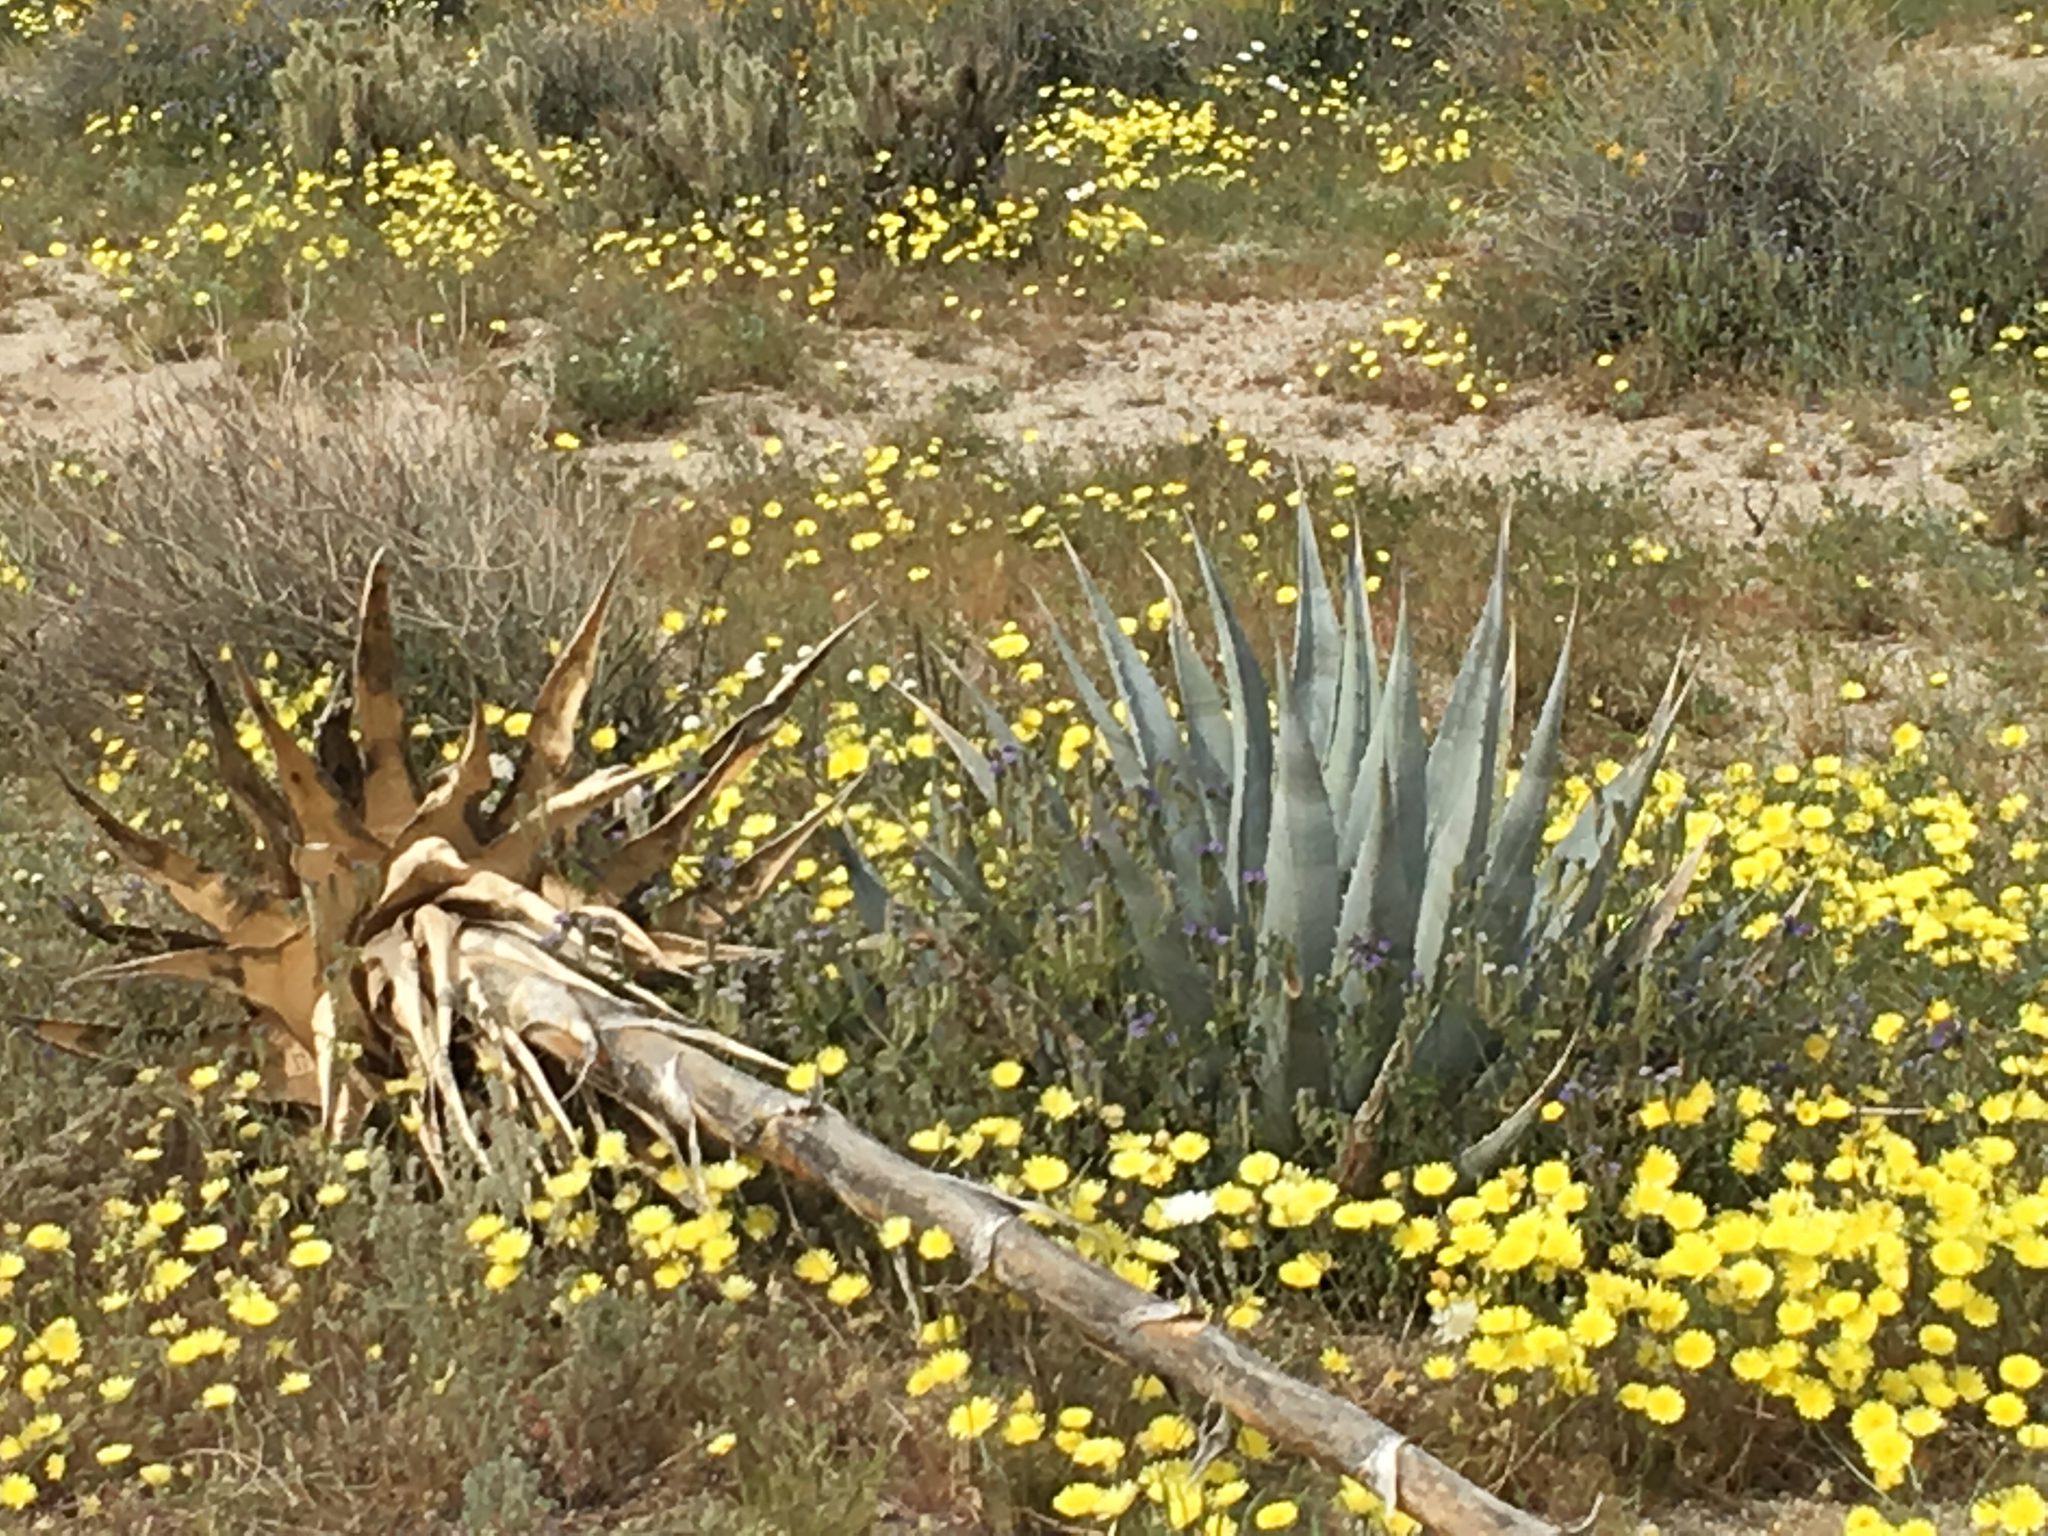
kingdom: Plantae
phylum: Tracheophyta
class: Liliopsida
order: Asparagales
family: Asparagaceae
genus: Agave
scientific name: Agave deserti
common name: Desert agave
